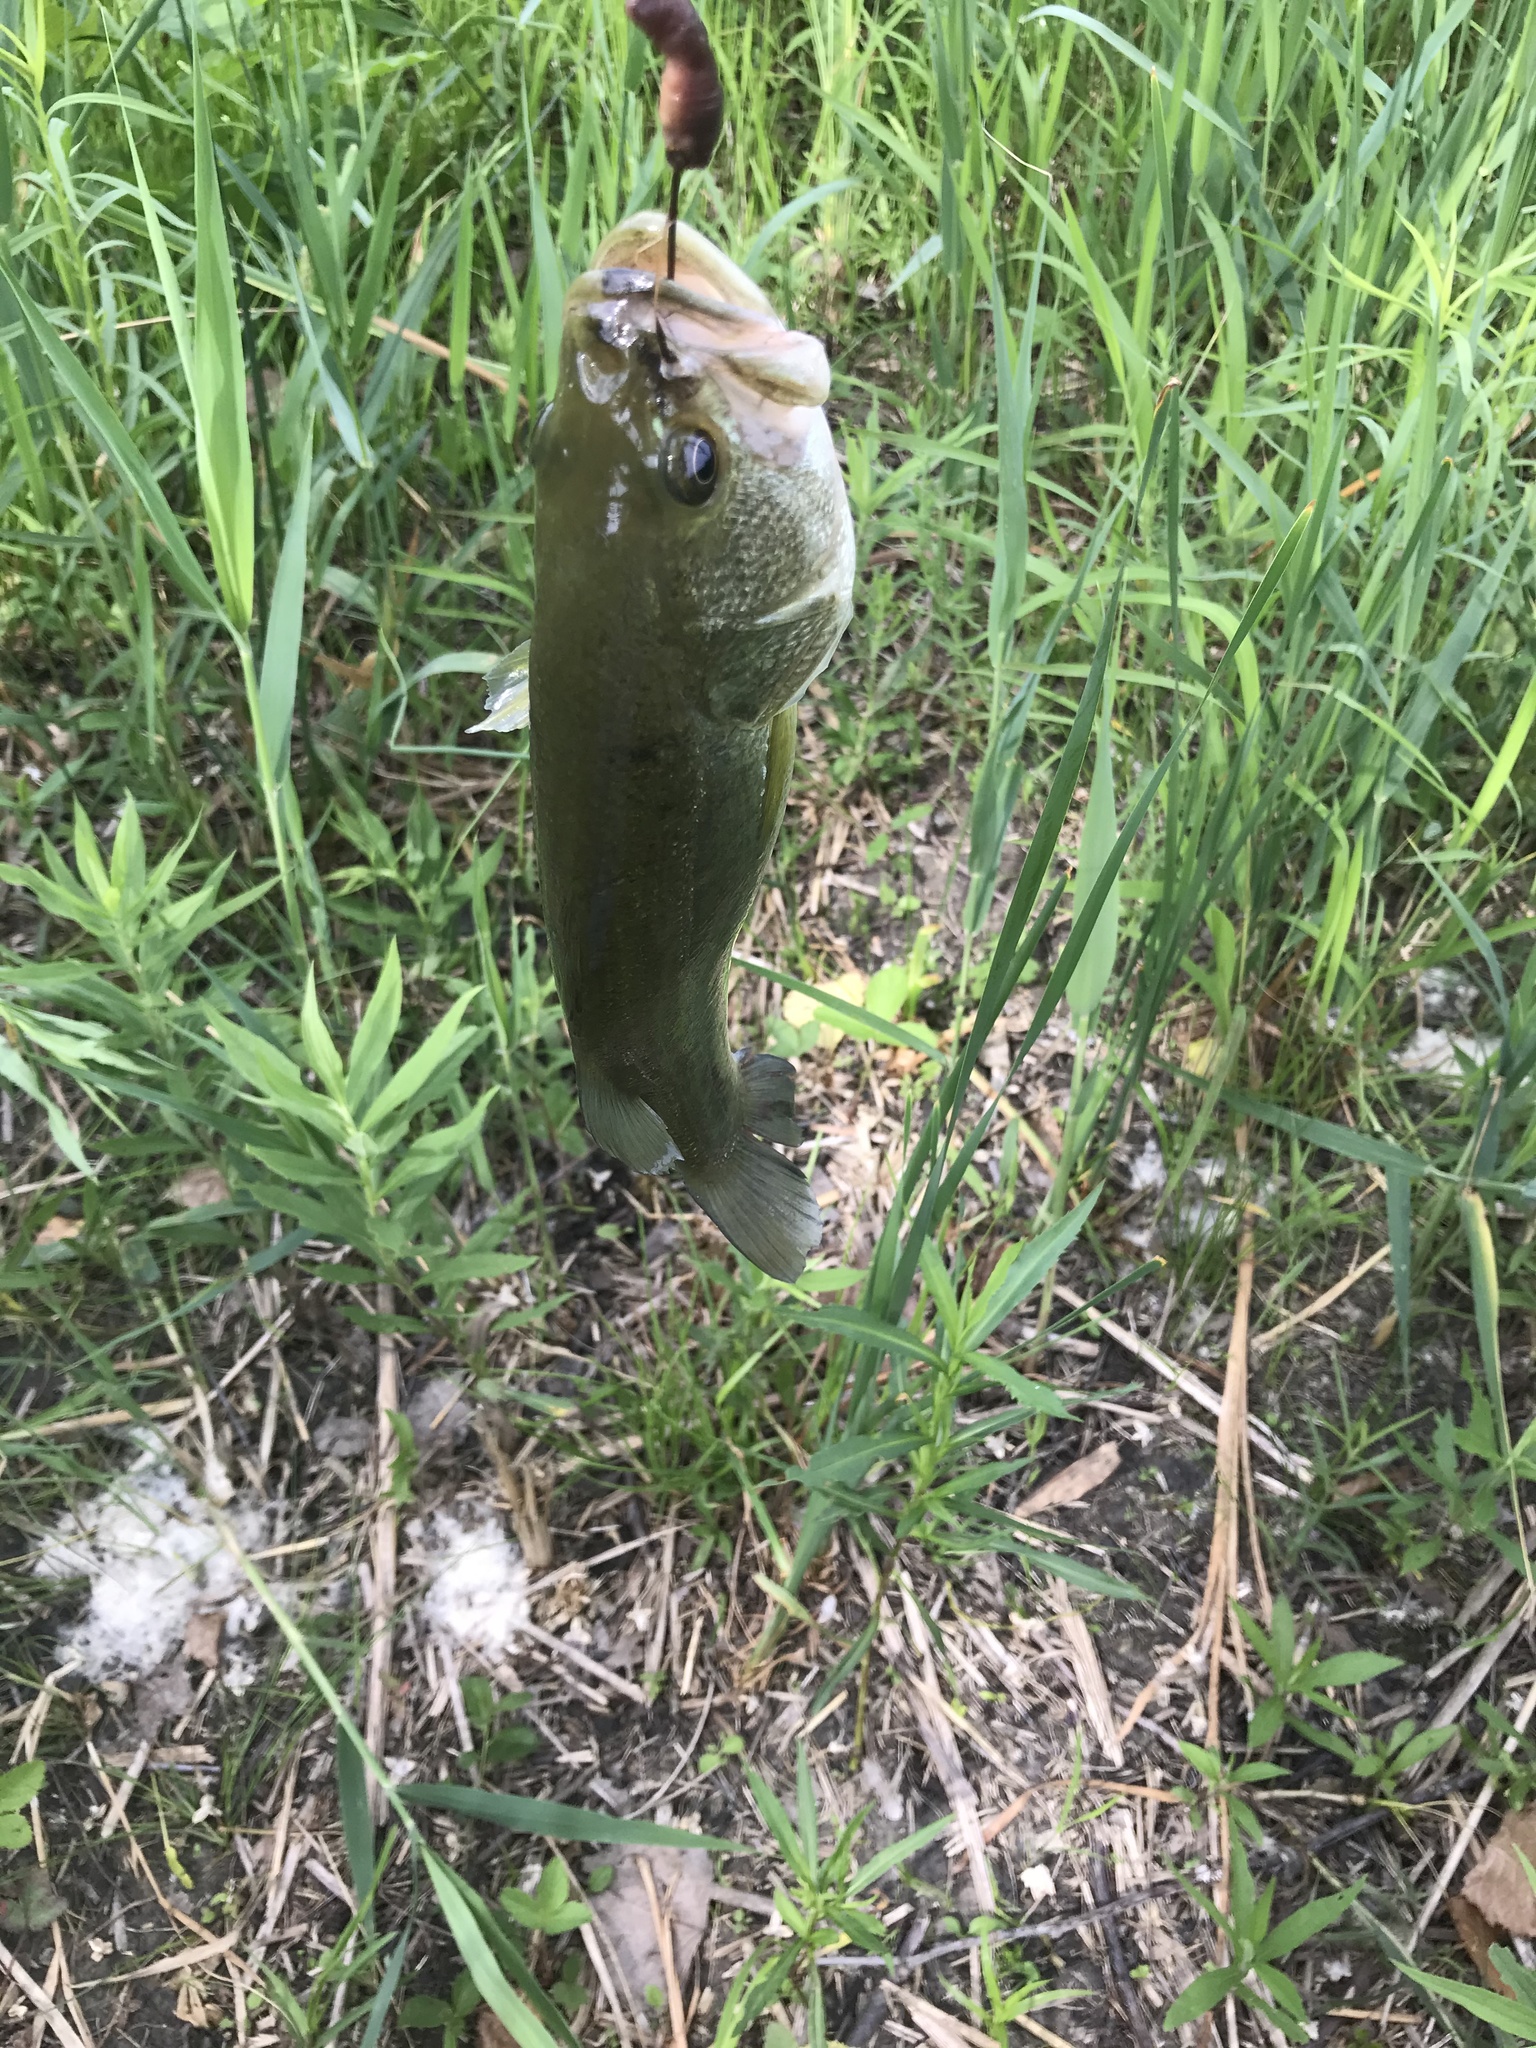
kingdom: Animalia
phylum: Chordata
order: Perciformes
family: Centrarchidae
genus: Micropterus
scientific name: Micropterus
